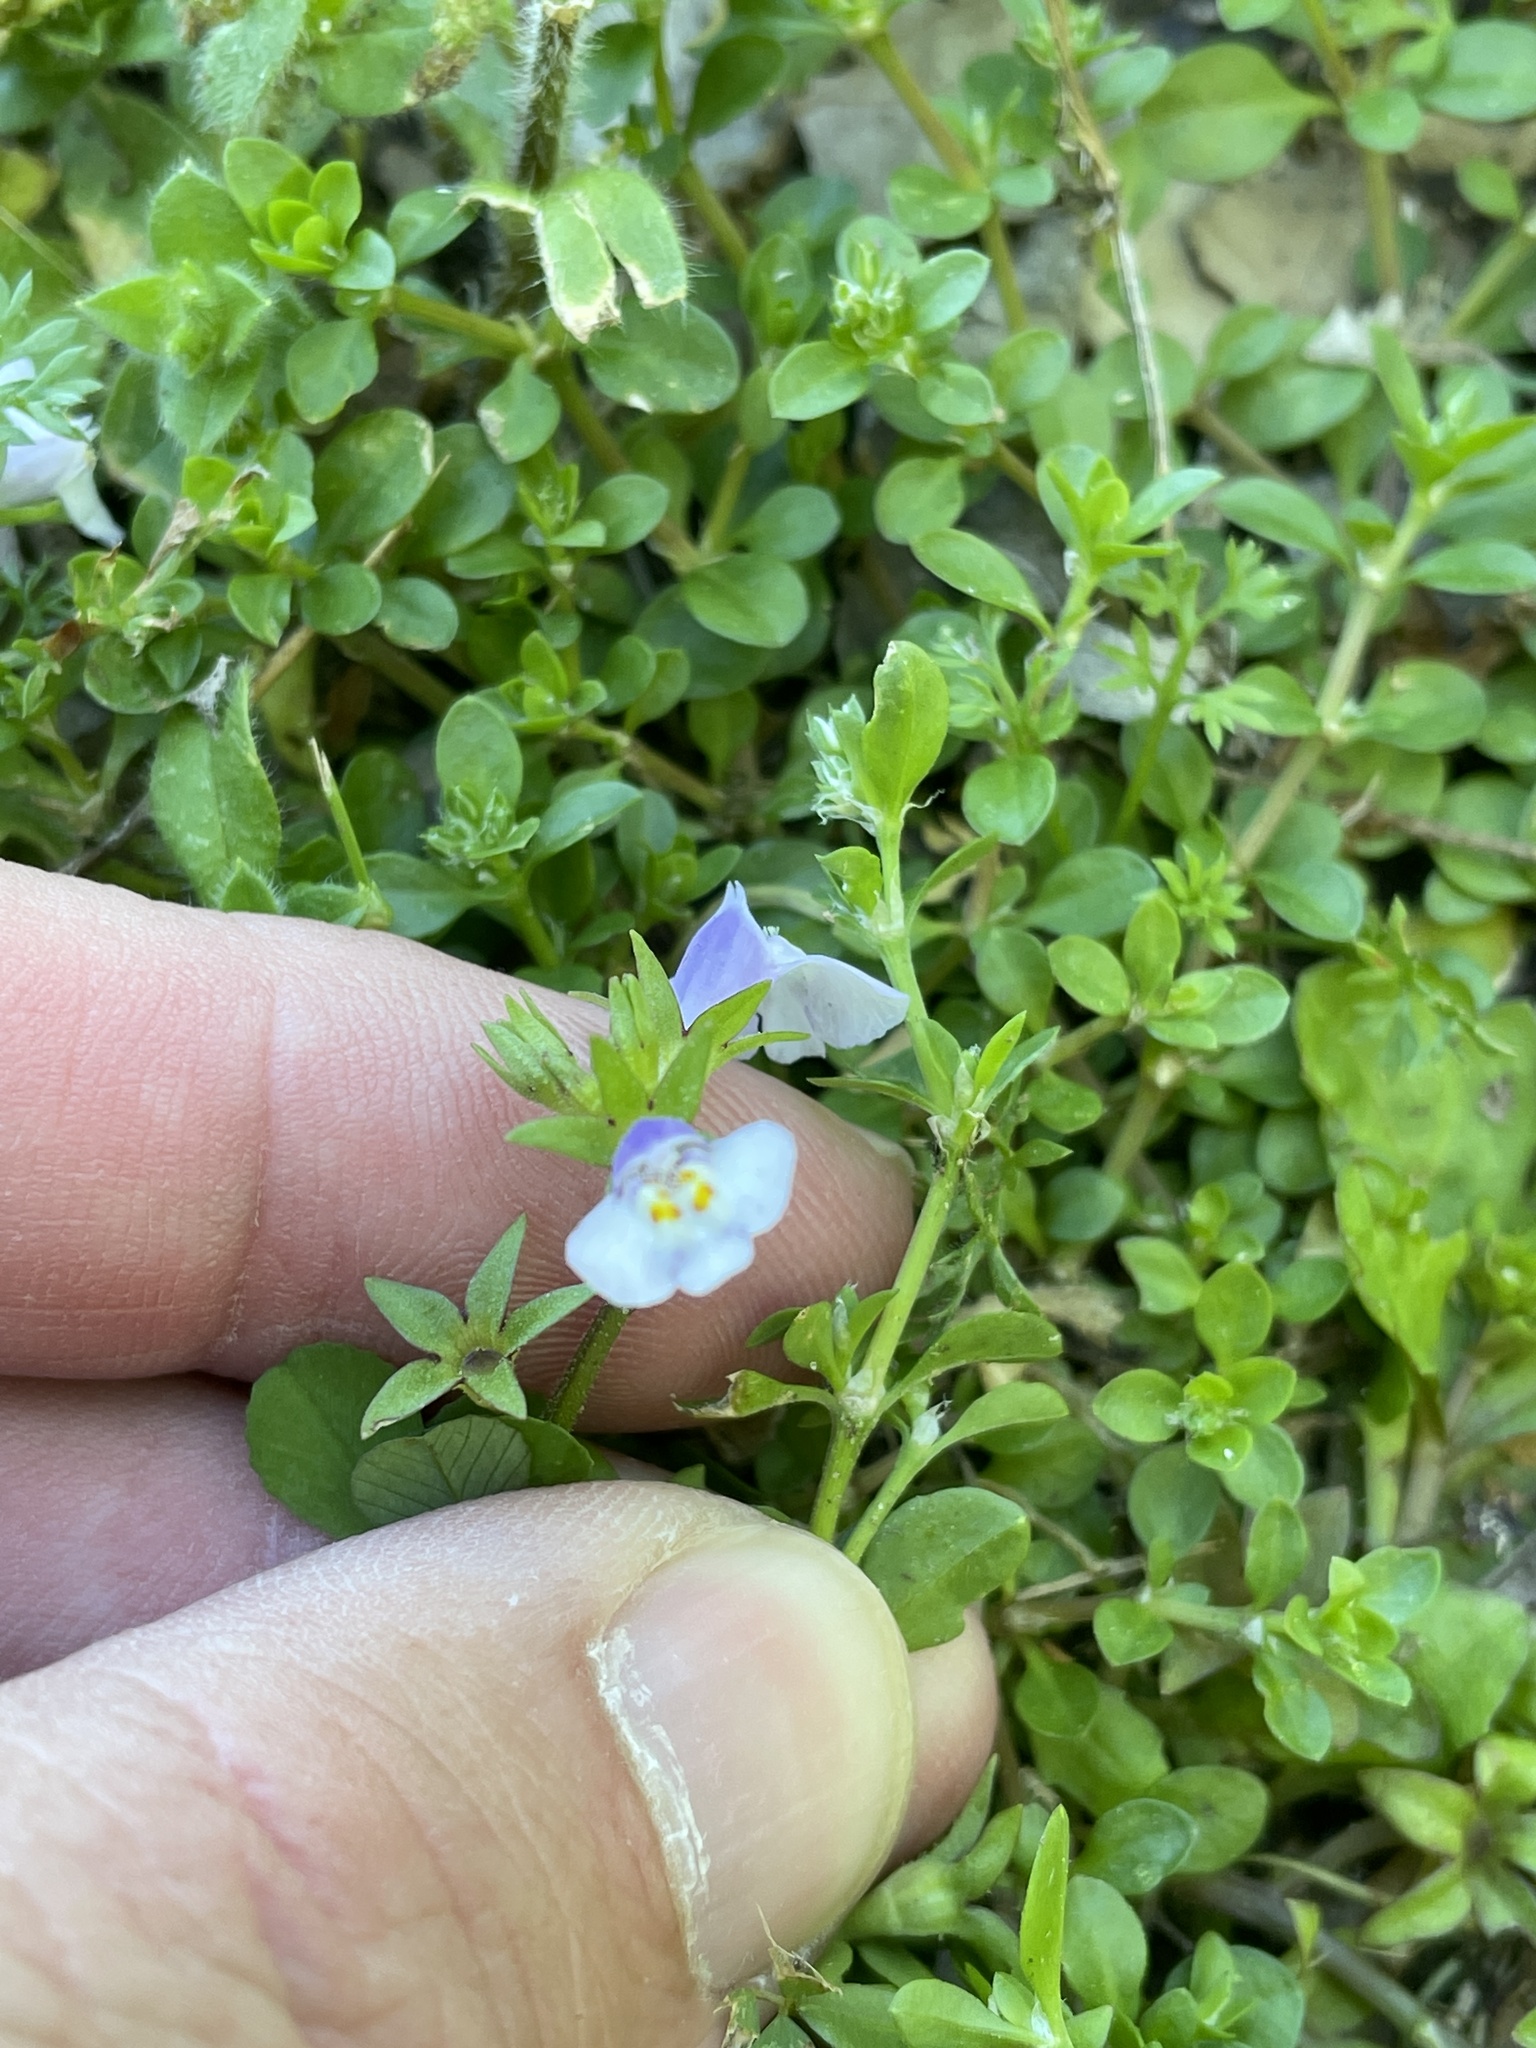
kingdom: Plantae
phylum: Tracheophyta
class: Magnoliopsida
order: Lamiales
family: Mazaceae
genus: Mazus
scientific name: Mazus pumilus
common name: Japanese mazus
